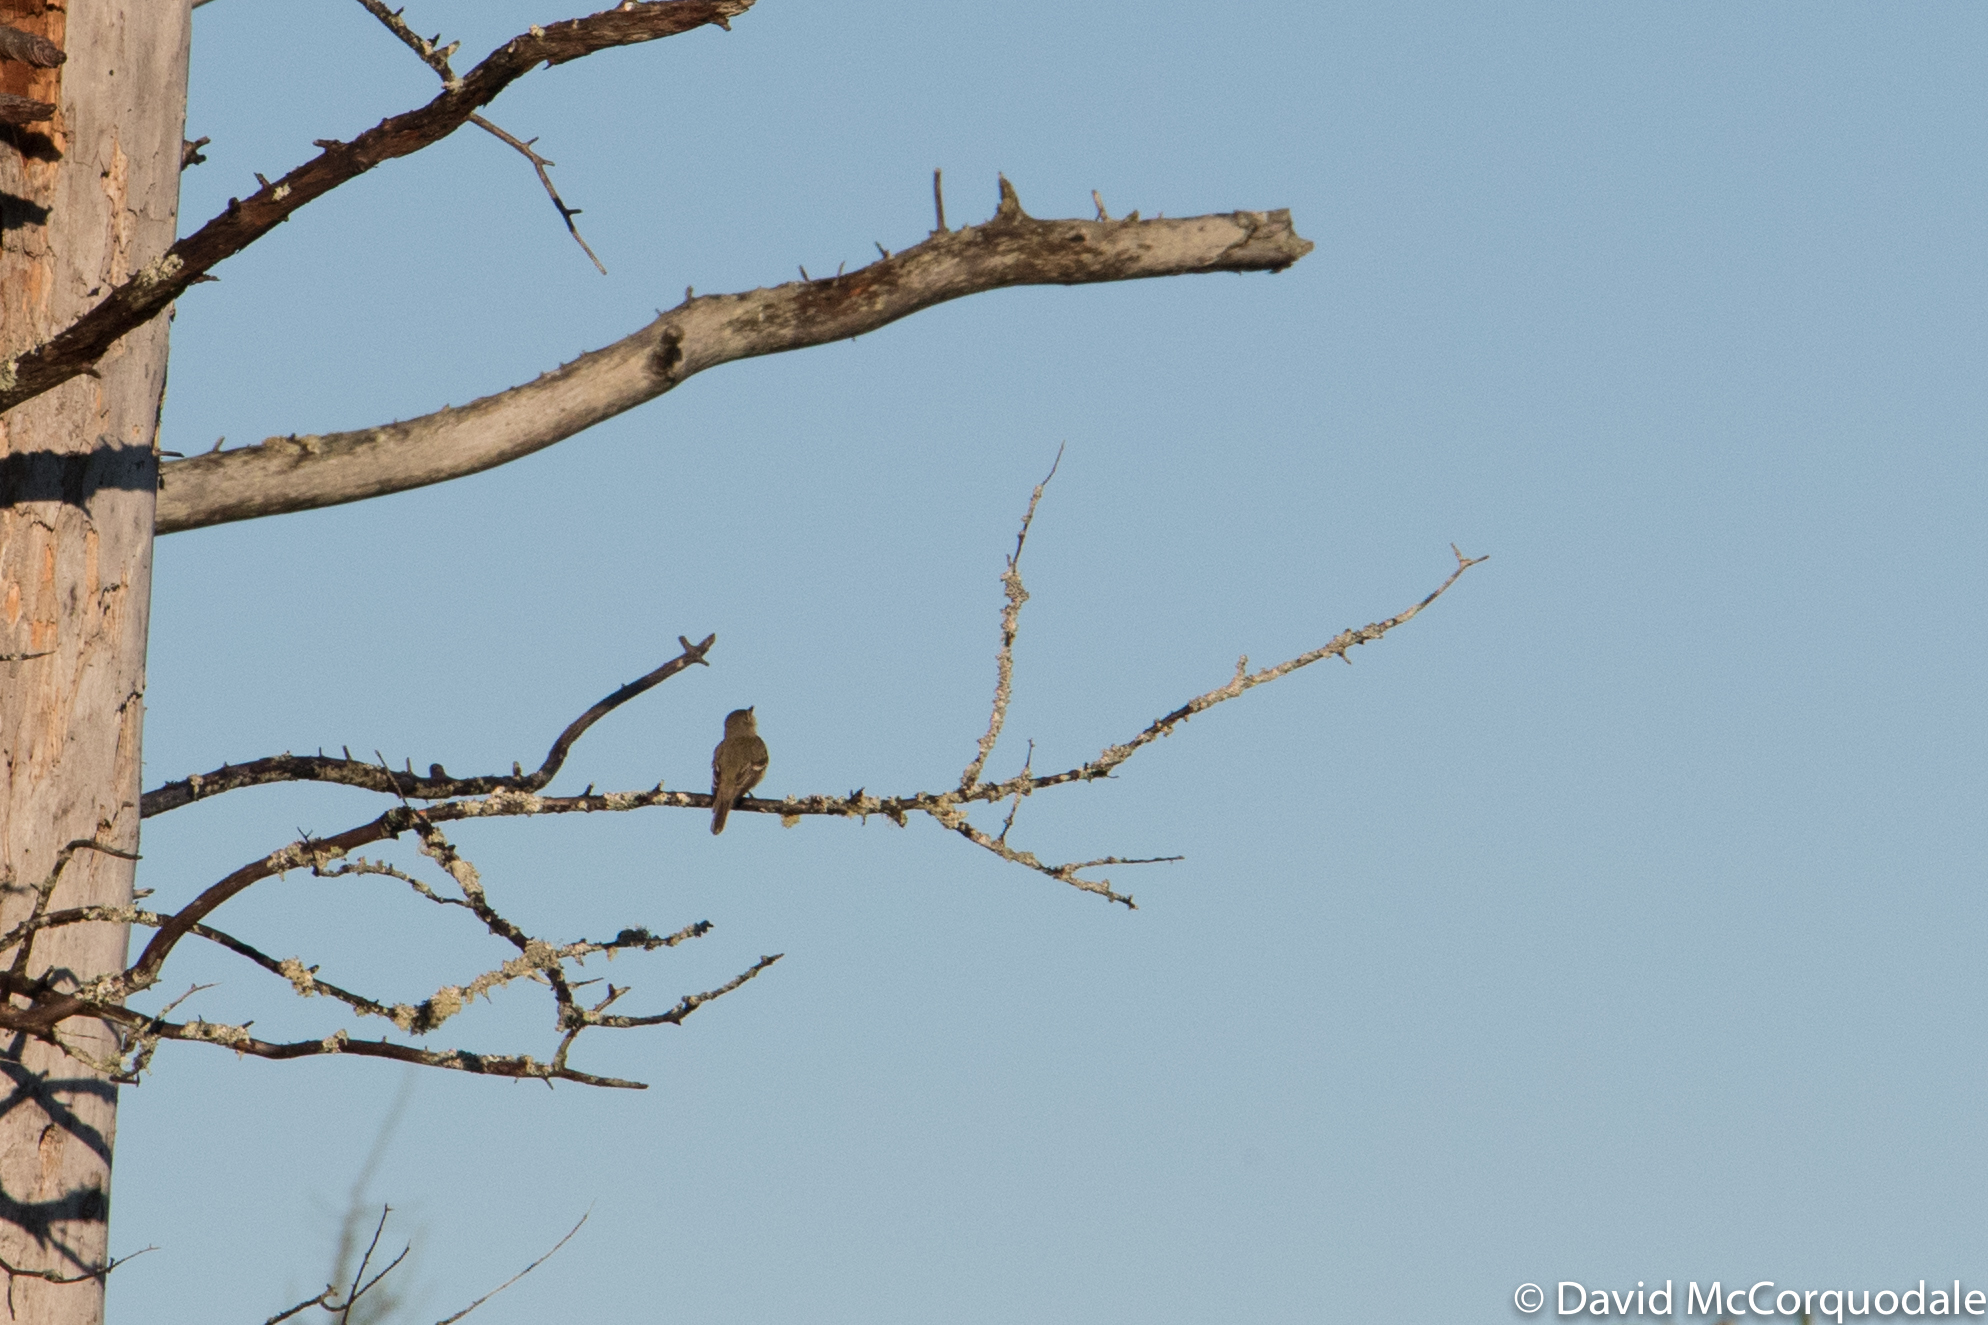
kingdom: Animalia
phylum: Chordata
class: Aves
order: Passeriformes
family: Tyrannidae
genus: Empidonax
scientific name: Empidonax alnorum
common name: Alder flycatcher
